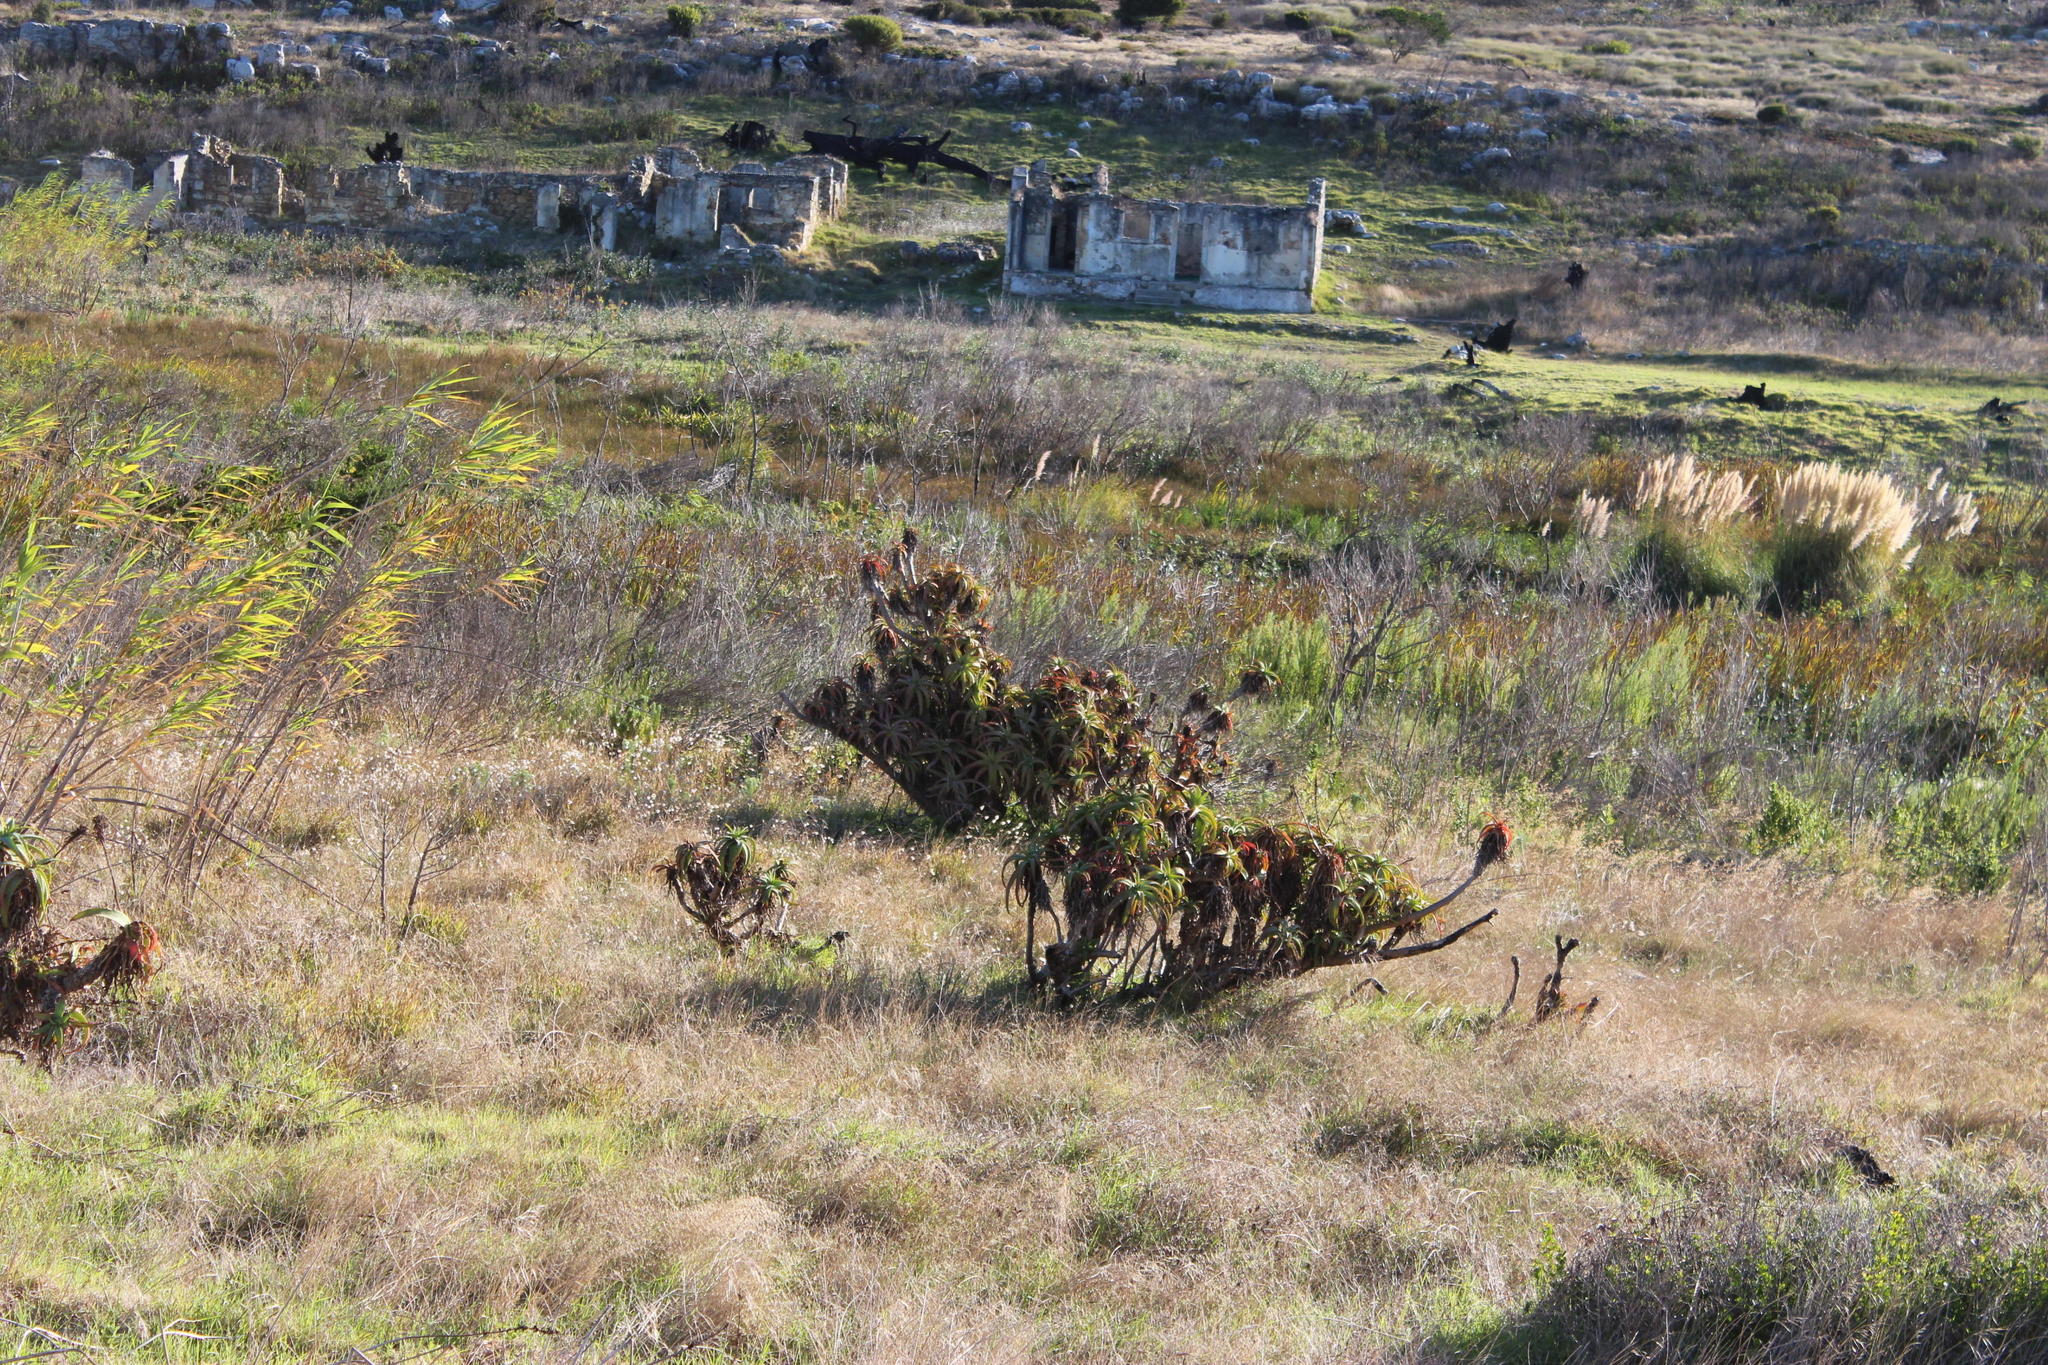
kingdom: Plantae
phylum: Tracheophyta
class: Liliopsida
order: Asparagales
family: Asphodelaceae
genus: Aloe
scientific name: Aloe arborescens
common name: Candelabra aloe
